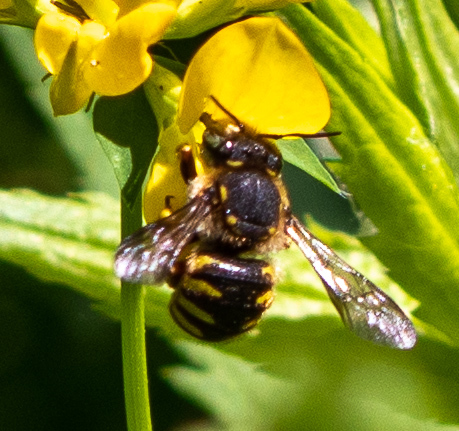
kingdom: Animalia
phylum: Arthropoda
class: Insecta
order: Hymenoptera
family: Megachilidae
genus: Anthidium
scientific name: Anthidium manicatum
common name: Wool carder bee
